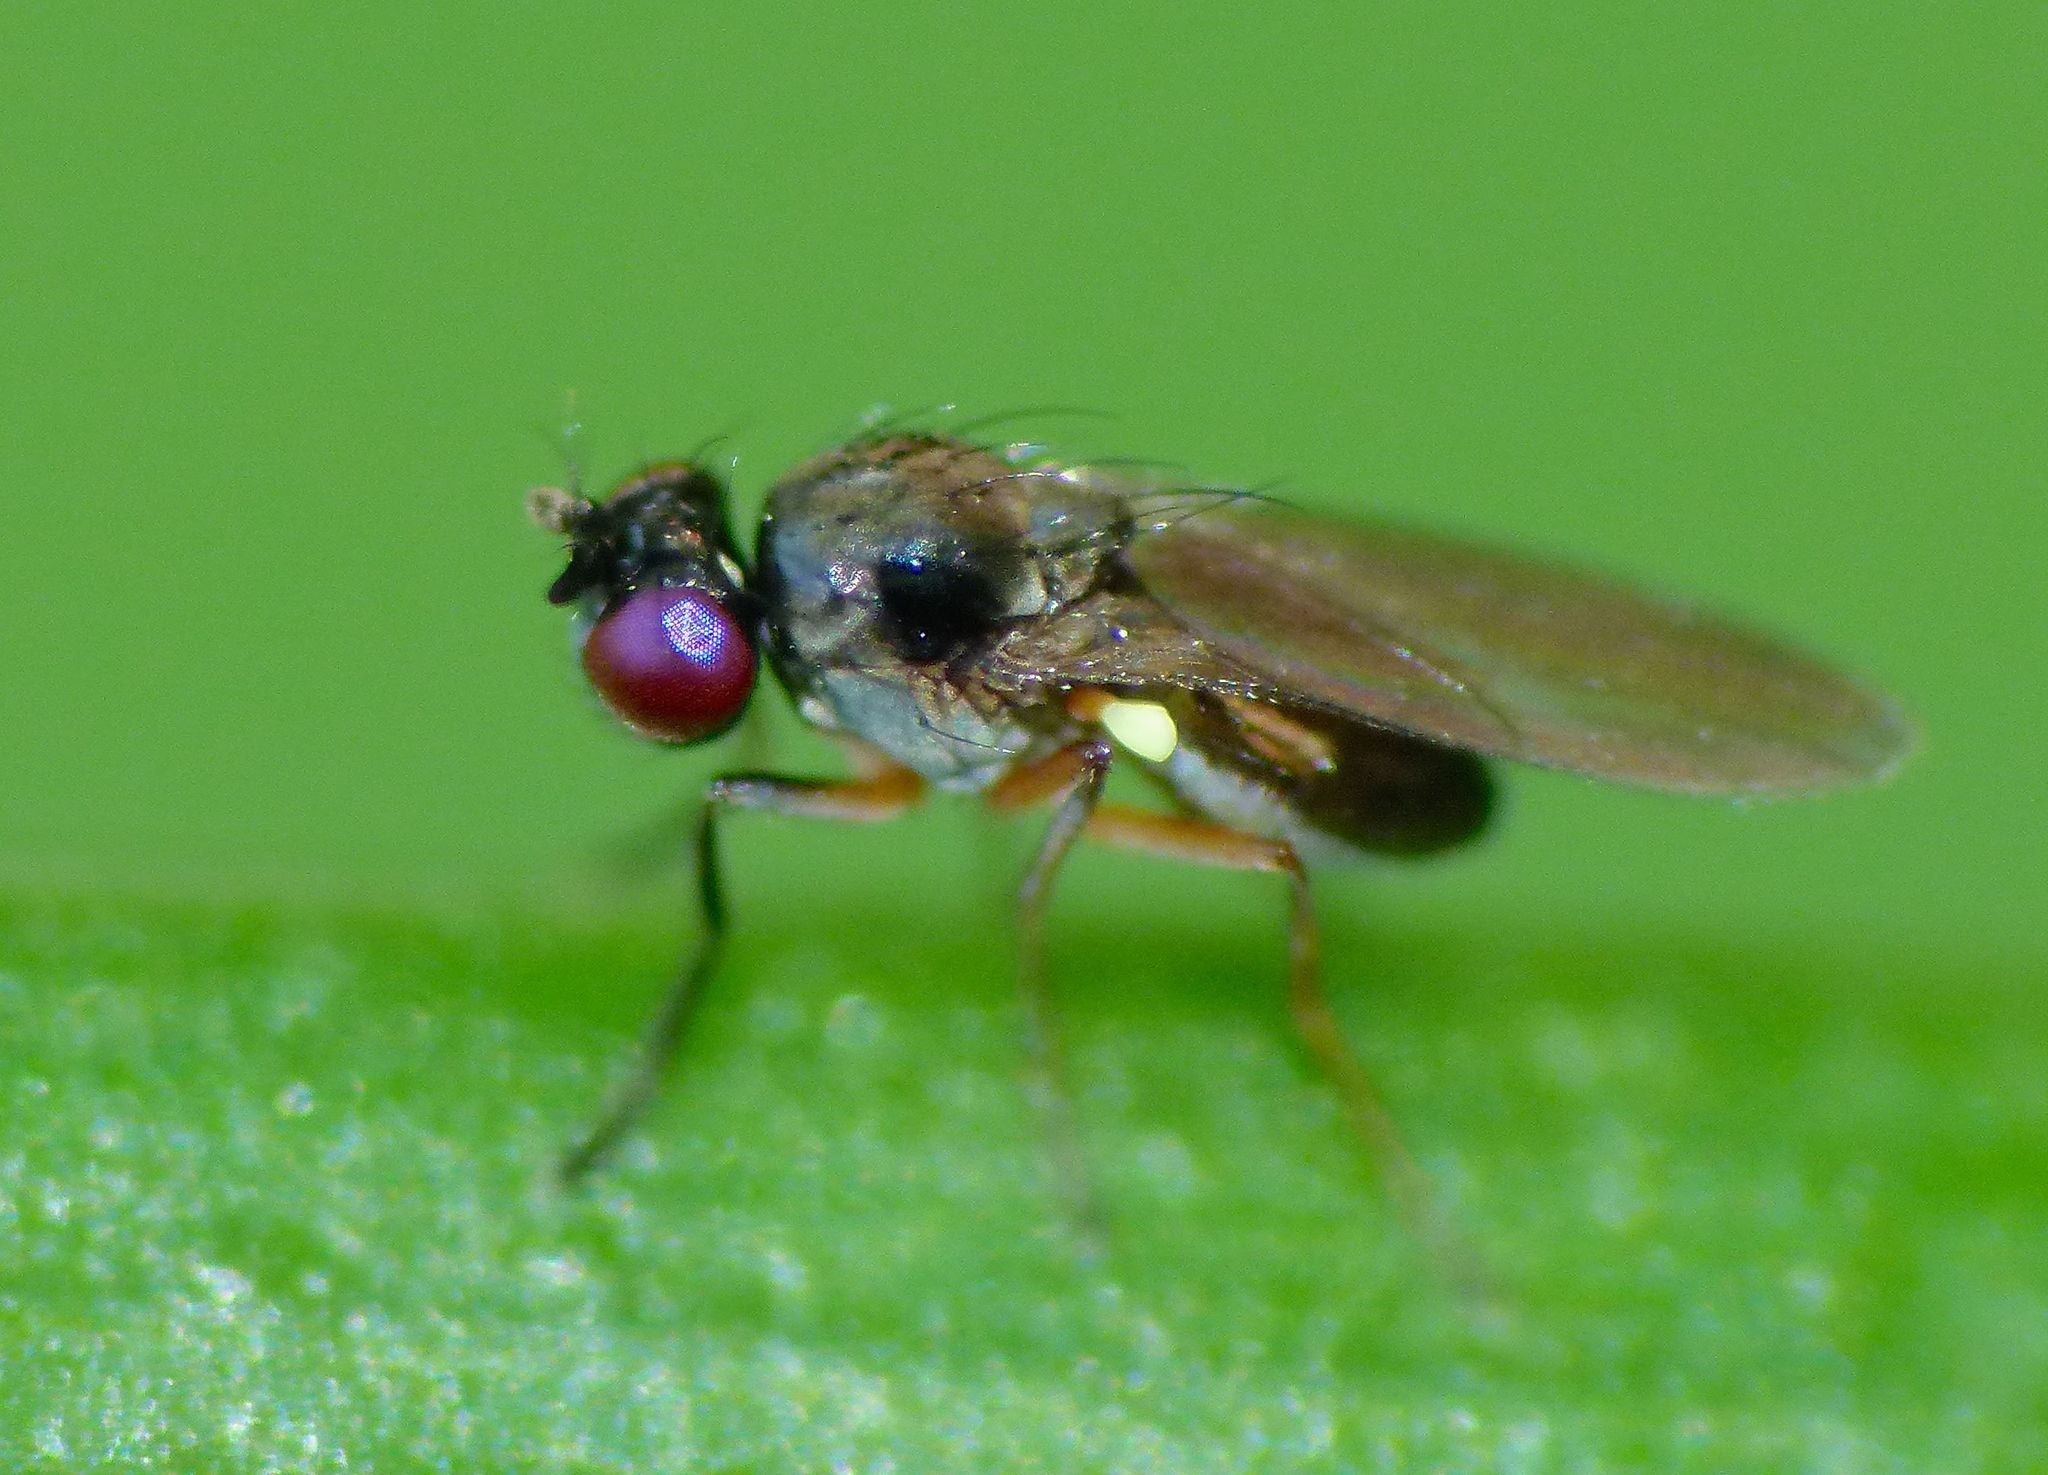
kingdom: Animalia
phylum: Arthropoda
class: Insecta
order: Diptera
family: Ephydridae
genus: Hydrellia
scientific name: Hydrellia tritici
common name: Shore fly
